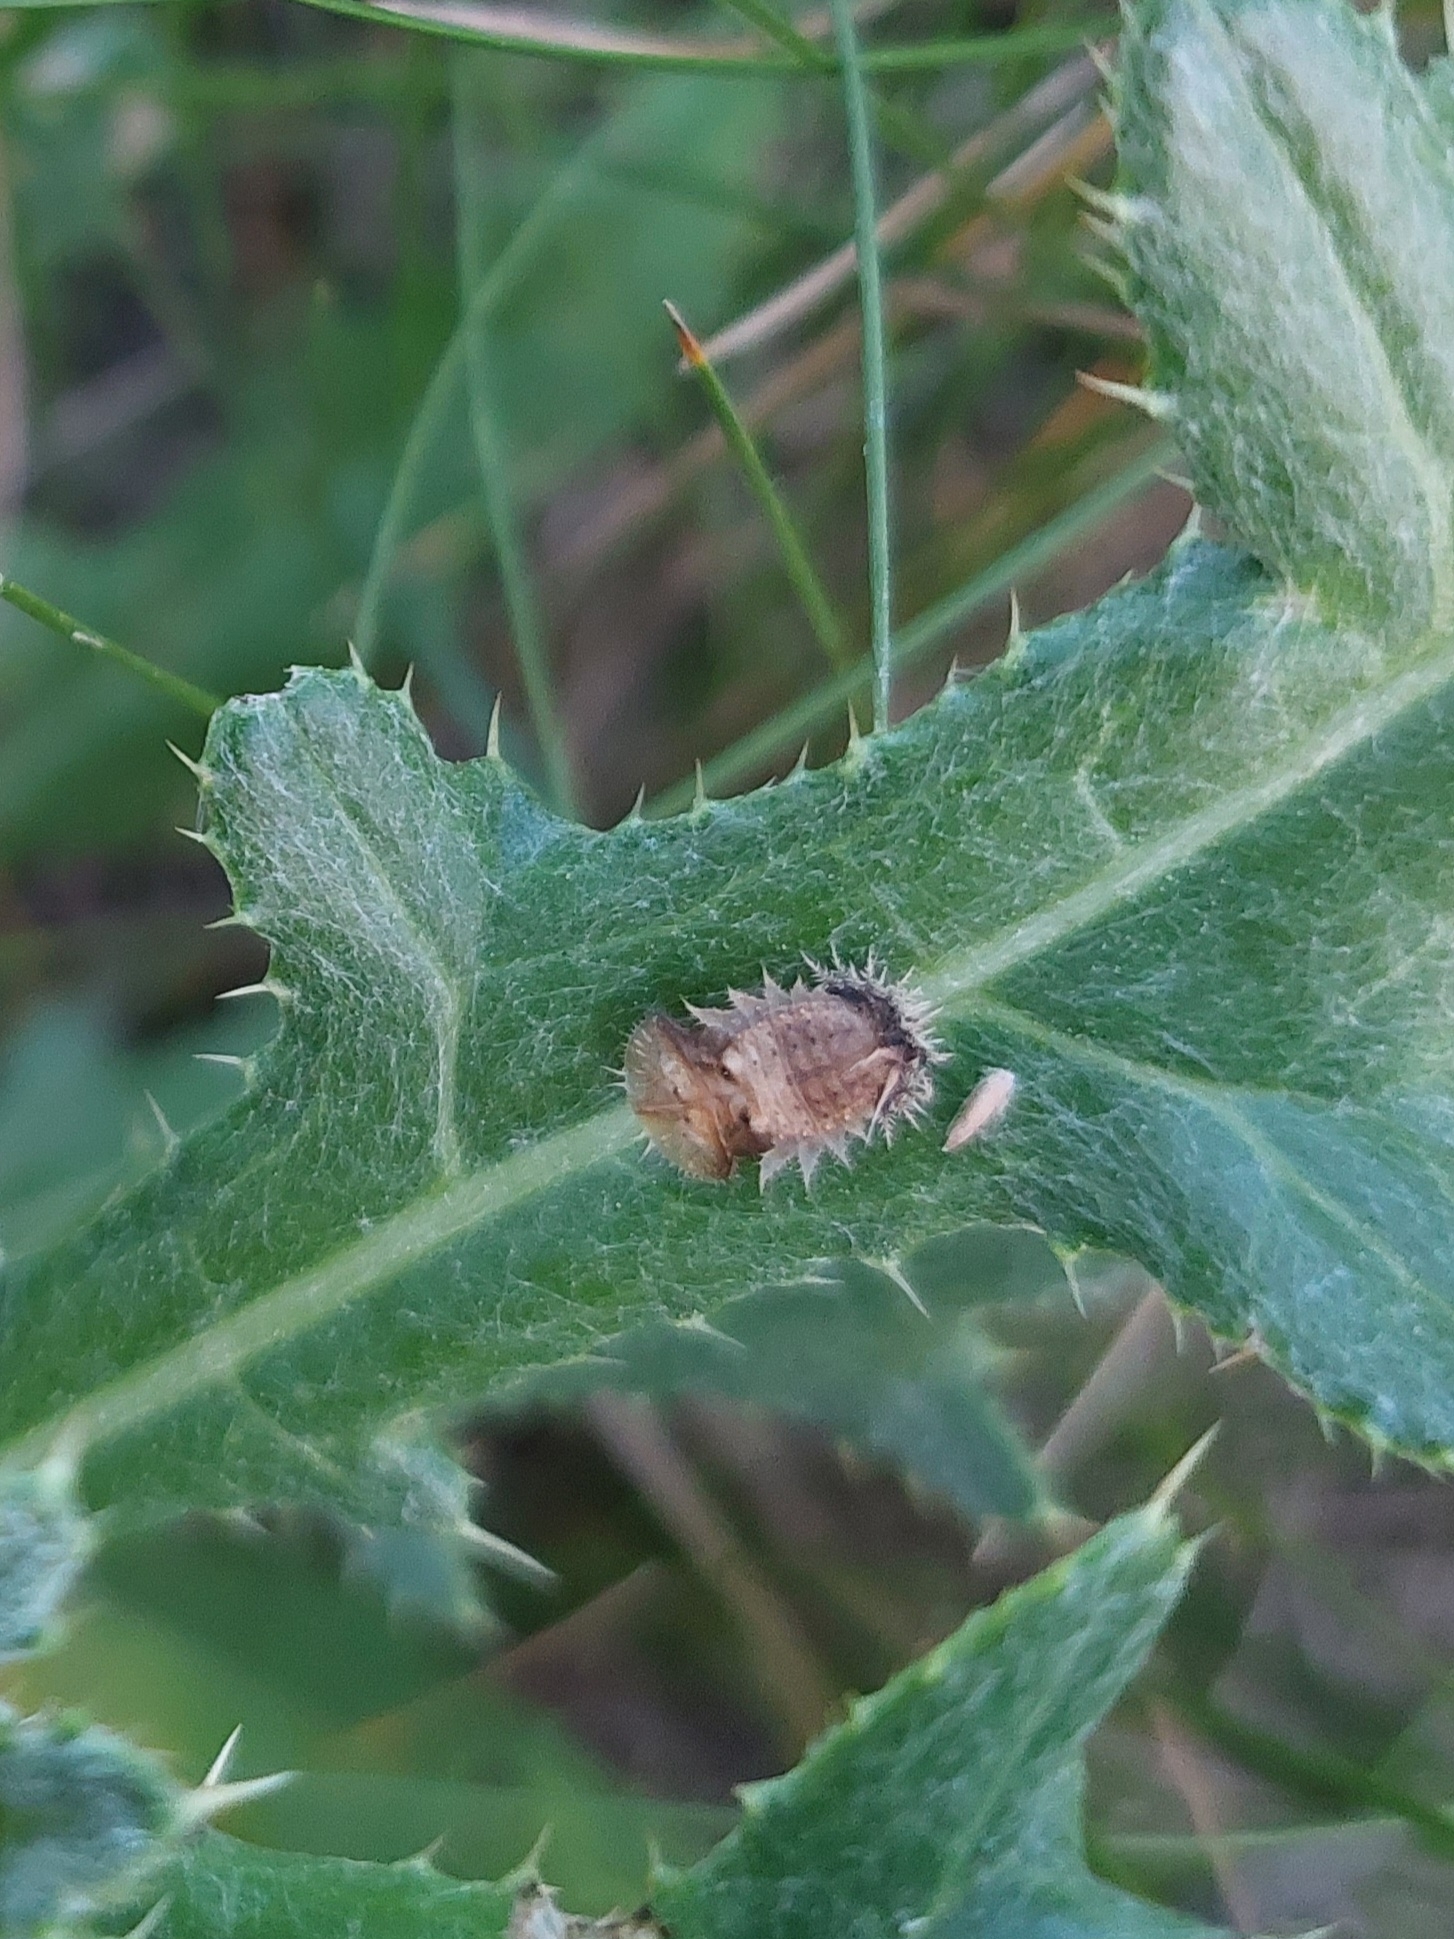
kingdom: Animalia
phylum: Arthropoda
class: Insecta
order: Coleoptera
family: Chrysomelidae
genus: Cassida
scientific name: Cassida rubiginosa
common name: Thistle tortoise beetle
